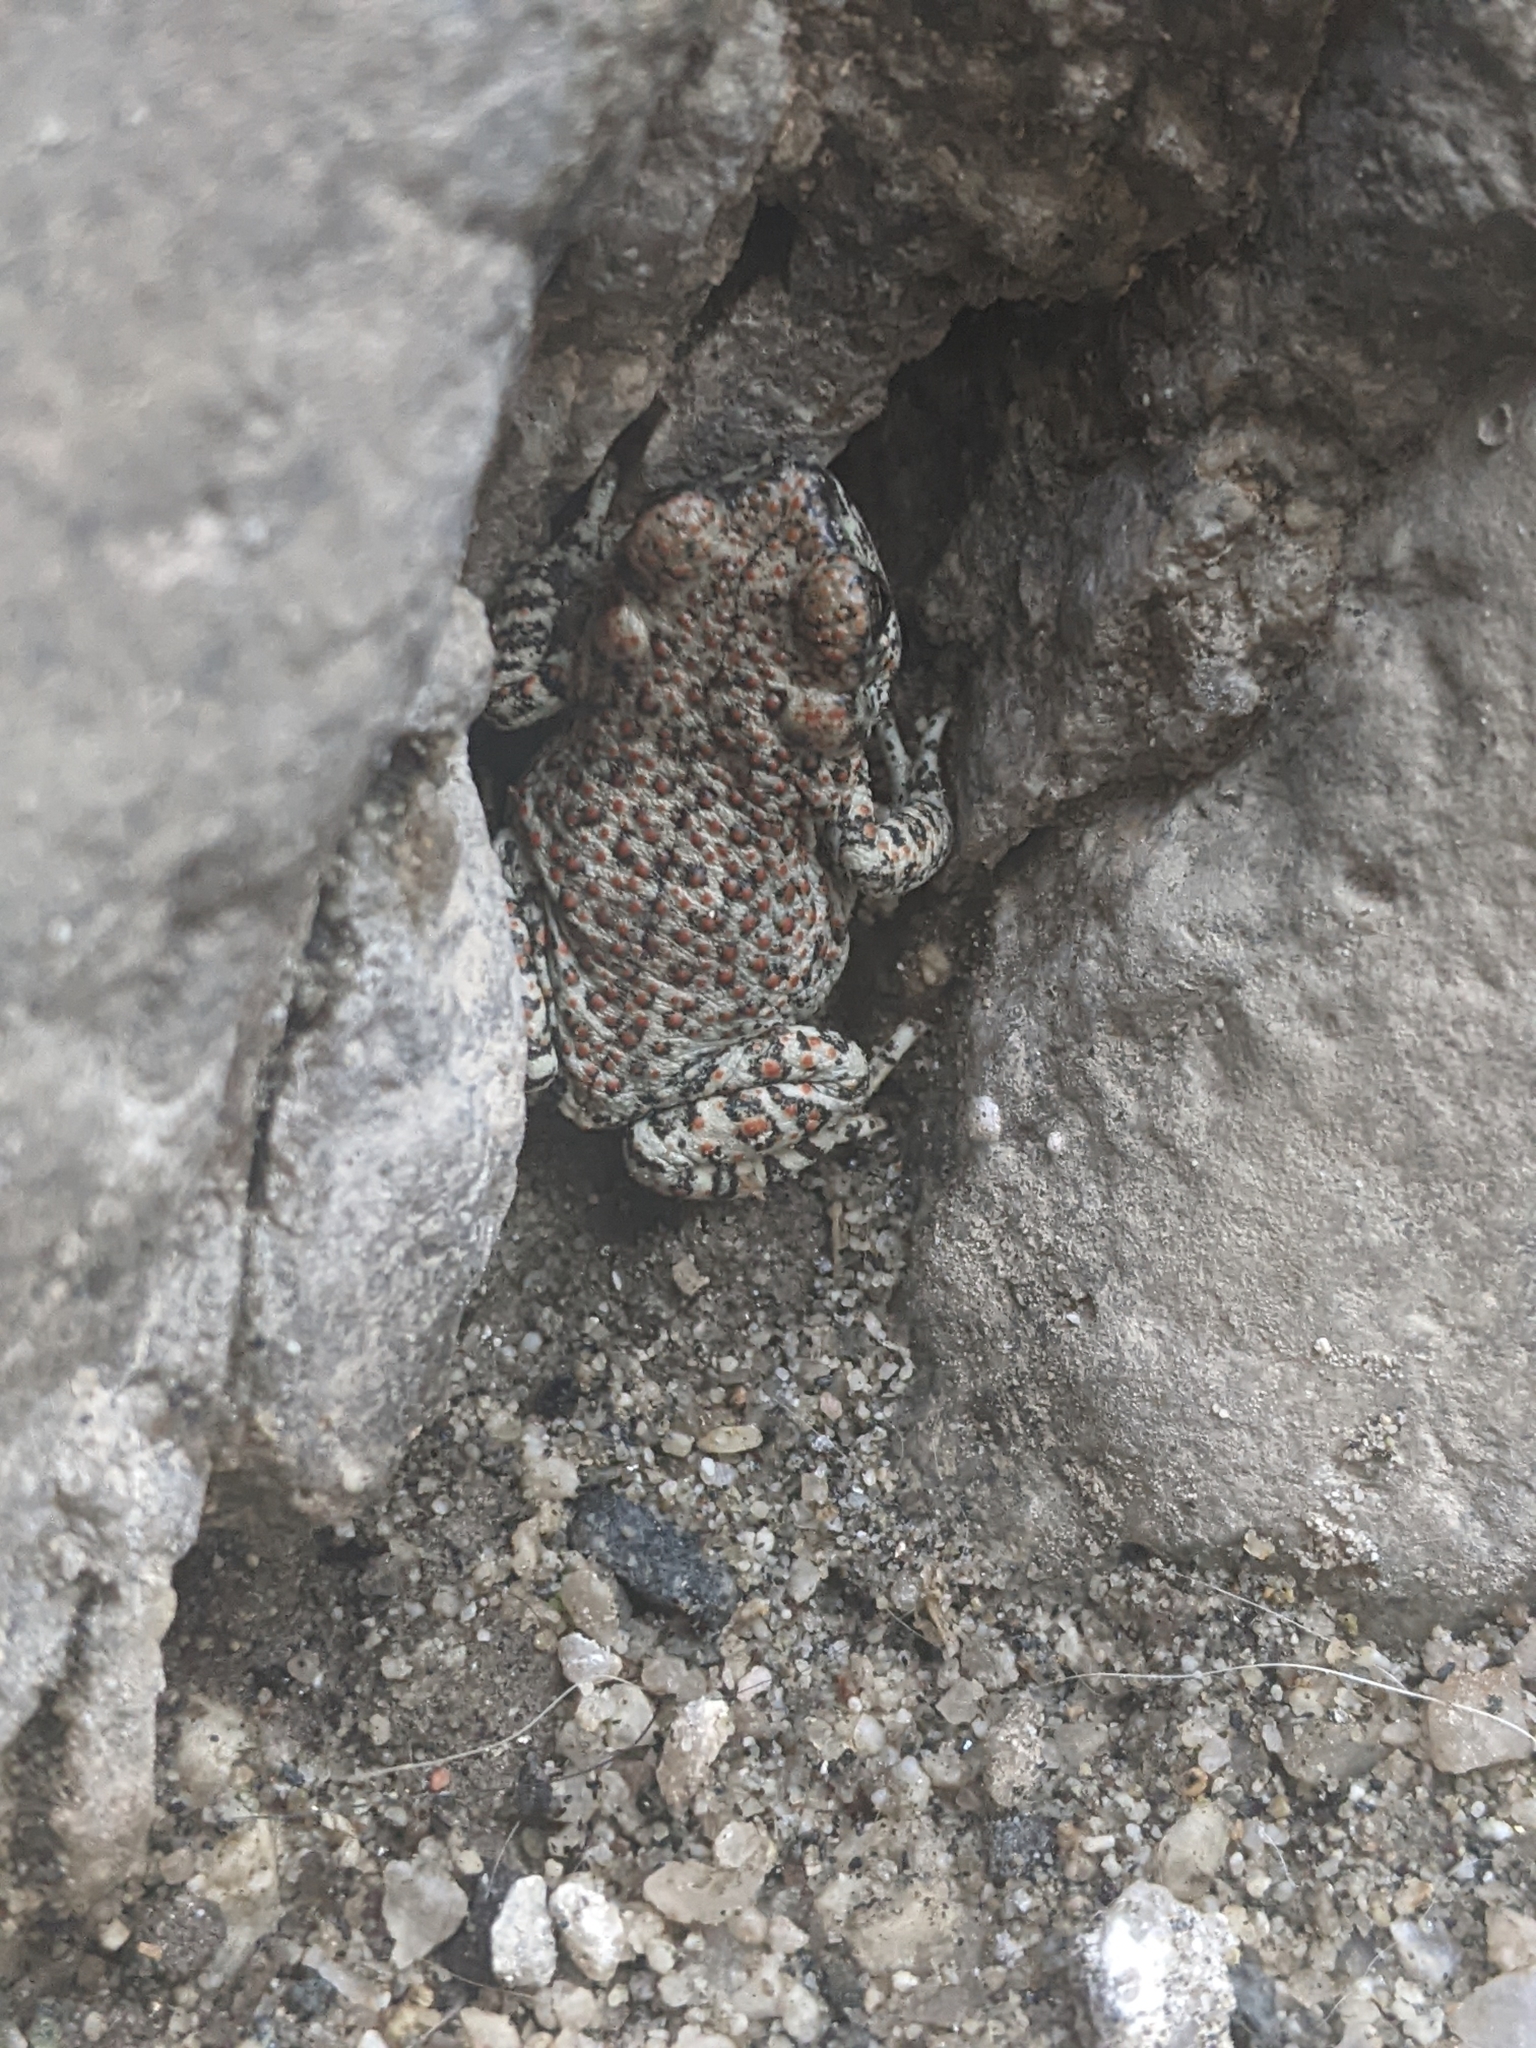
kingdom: Animalia
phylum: Chordata
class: Amphibia
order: Anura
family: Bufonidae
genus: Anaxyrus
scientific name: Anaxyrus punctatus
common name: Red-spotted toad
